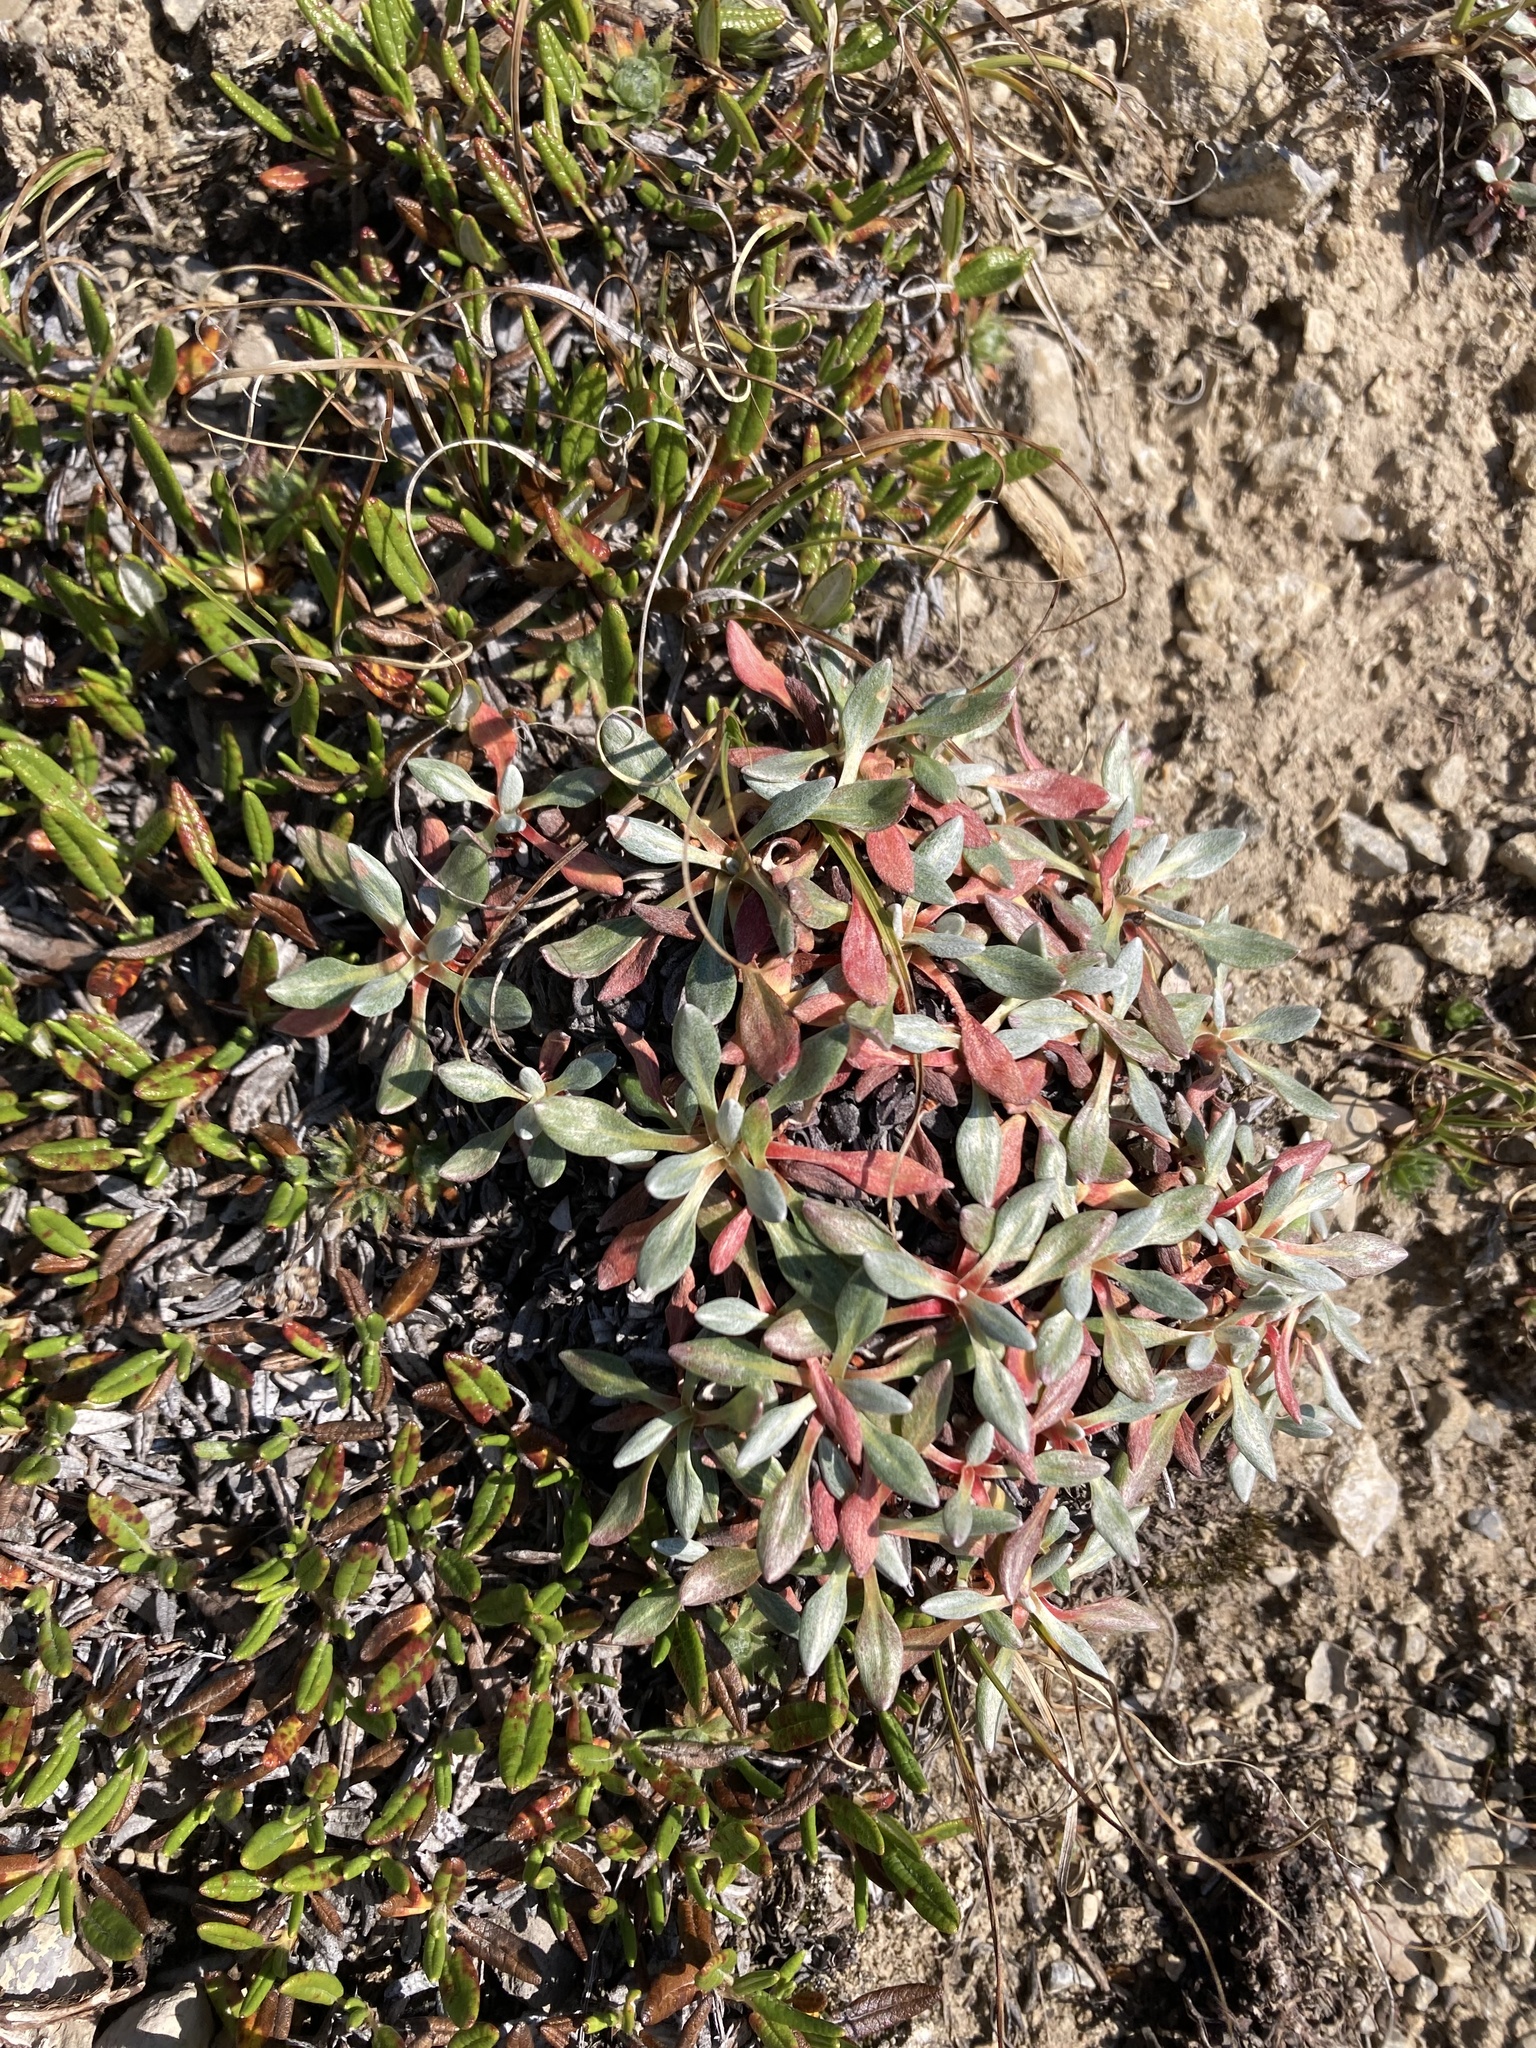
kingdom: Plantae
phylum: Tracheophyta
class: Magnoliopsida
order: Caryophyllales
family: Polygonaceae
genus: Eriogonum
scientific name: Eriogonum androsaceum
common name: Rock-jasmine wild buckwheat
